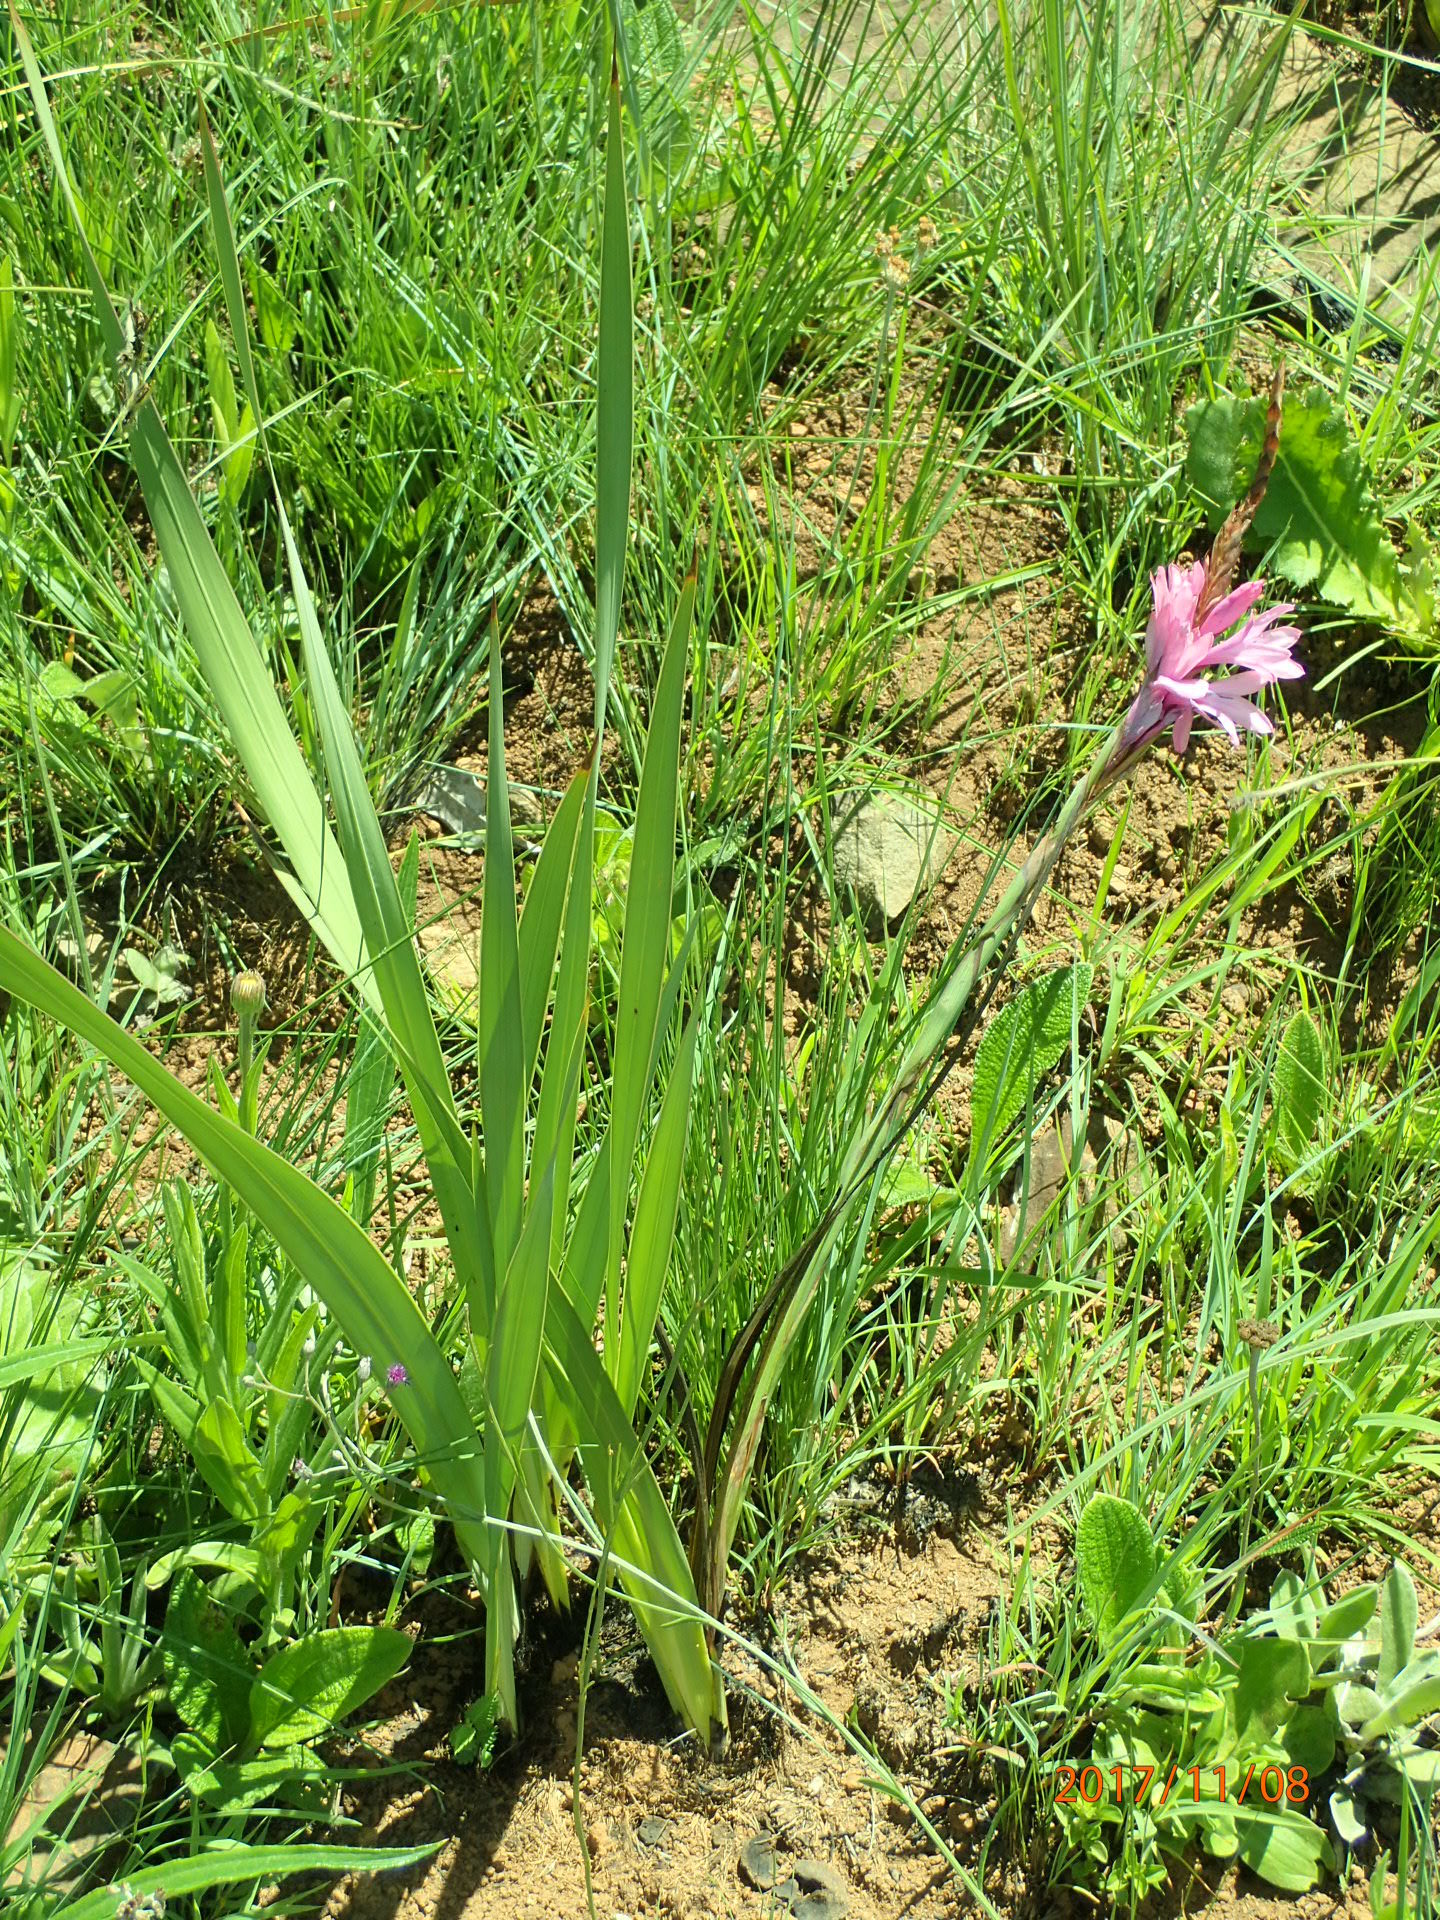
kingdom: Plantae
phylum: Tracheophyta
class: Liliopsida
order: Asparagales
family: Iridaceae
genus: Watsonia
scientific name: Watsonia densiflora
